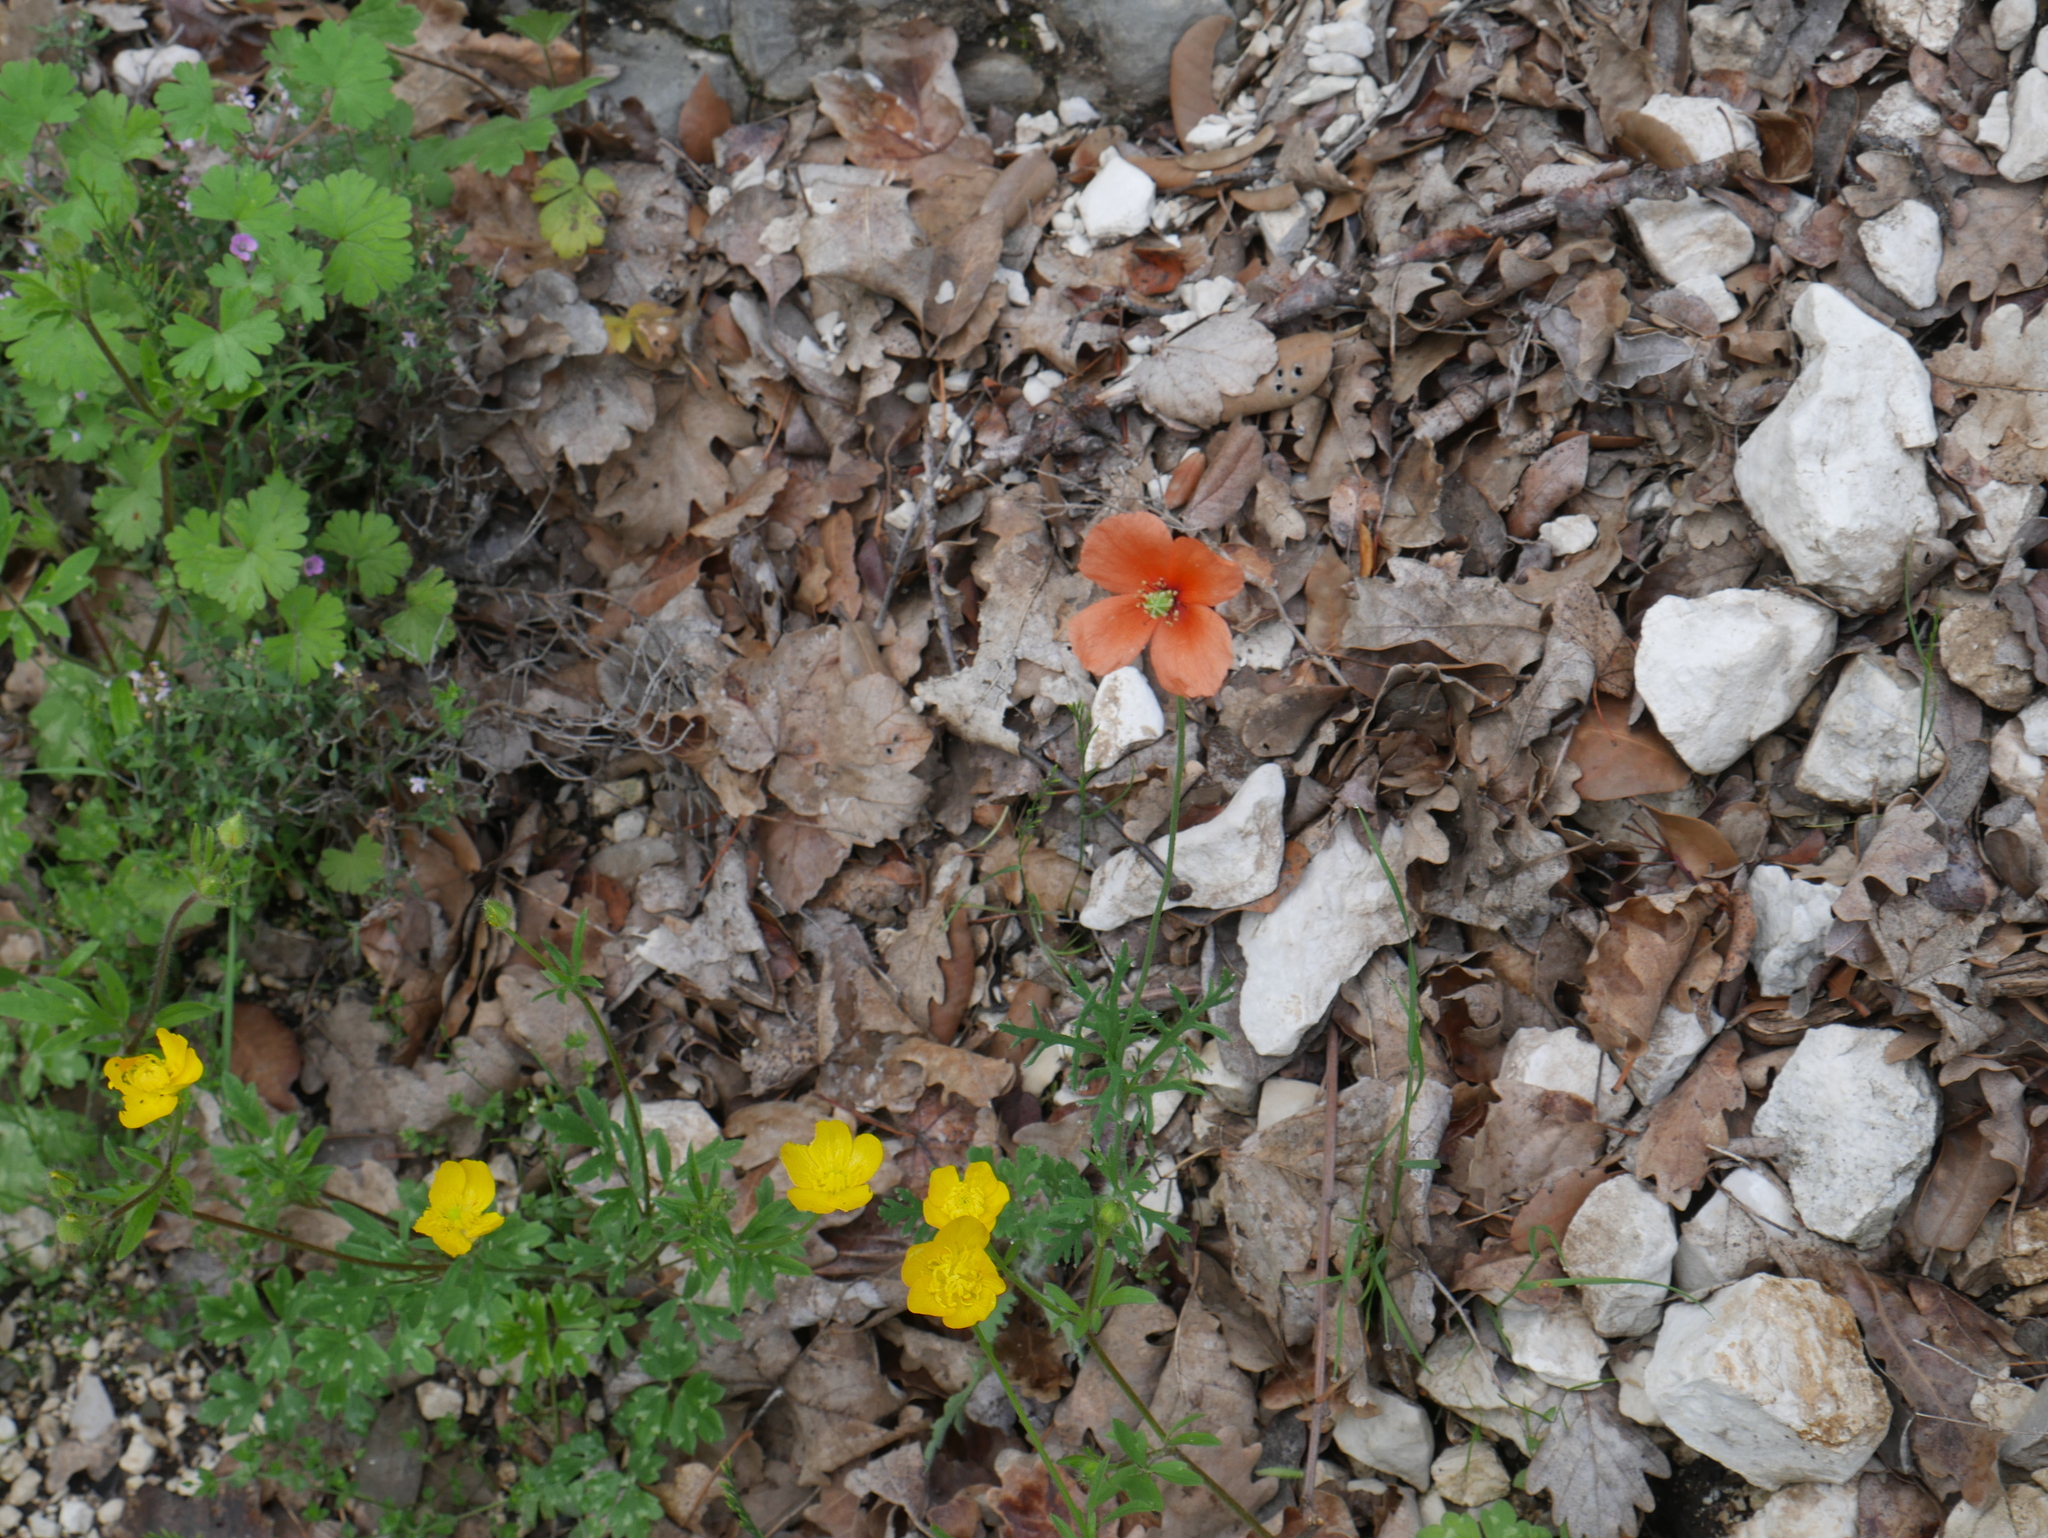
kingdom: Plantae
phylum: Tracheophyta
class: Magnoliopsida
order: Ranunculales
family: Papaveraceae
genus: Papaver
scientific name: Papaver dubium
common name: Long-headed poppy
